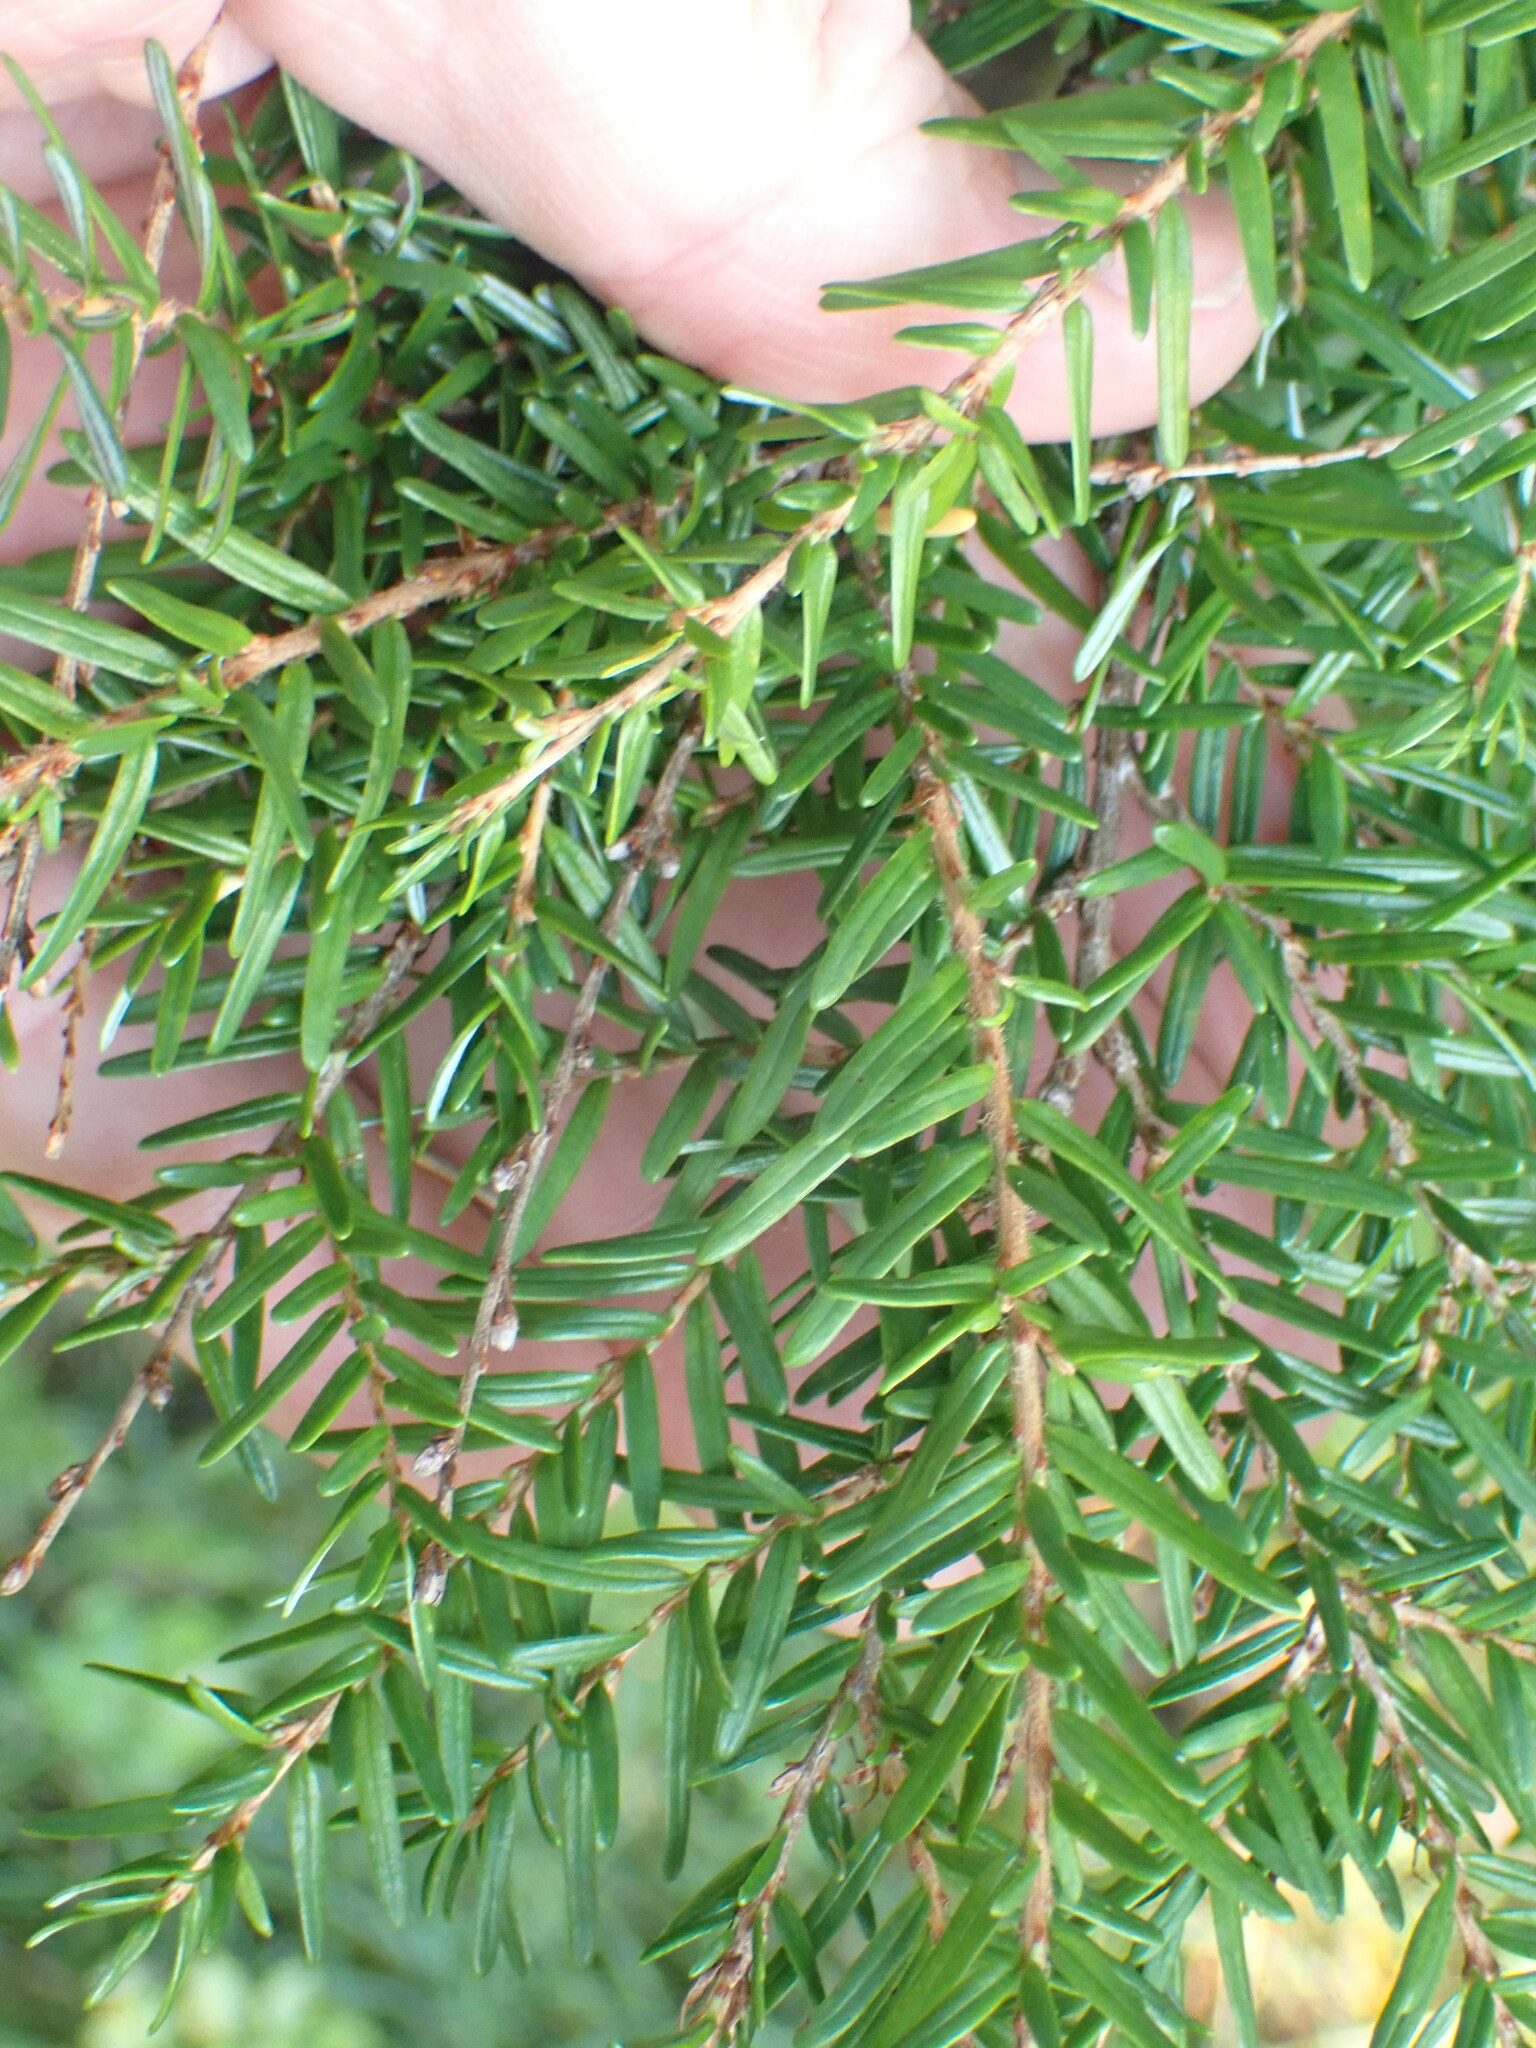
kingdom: Plantae
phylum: Tracheophyta
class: Pinopsida
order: Pinales
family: Pinaceae
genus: Tsuga
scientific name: Tsuga heterophylla
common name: Western hemlock
